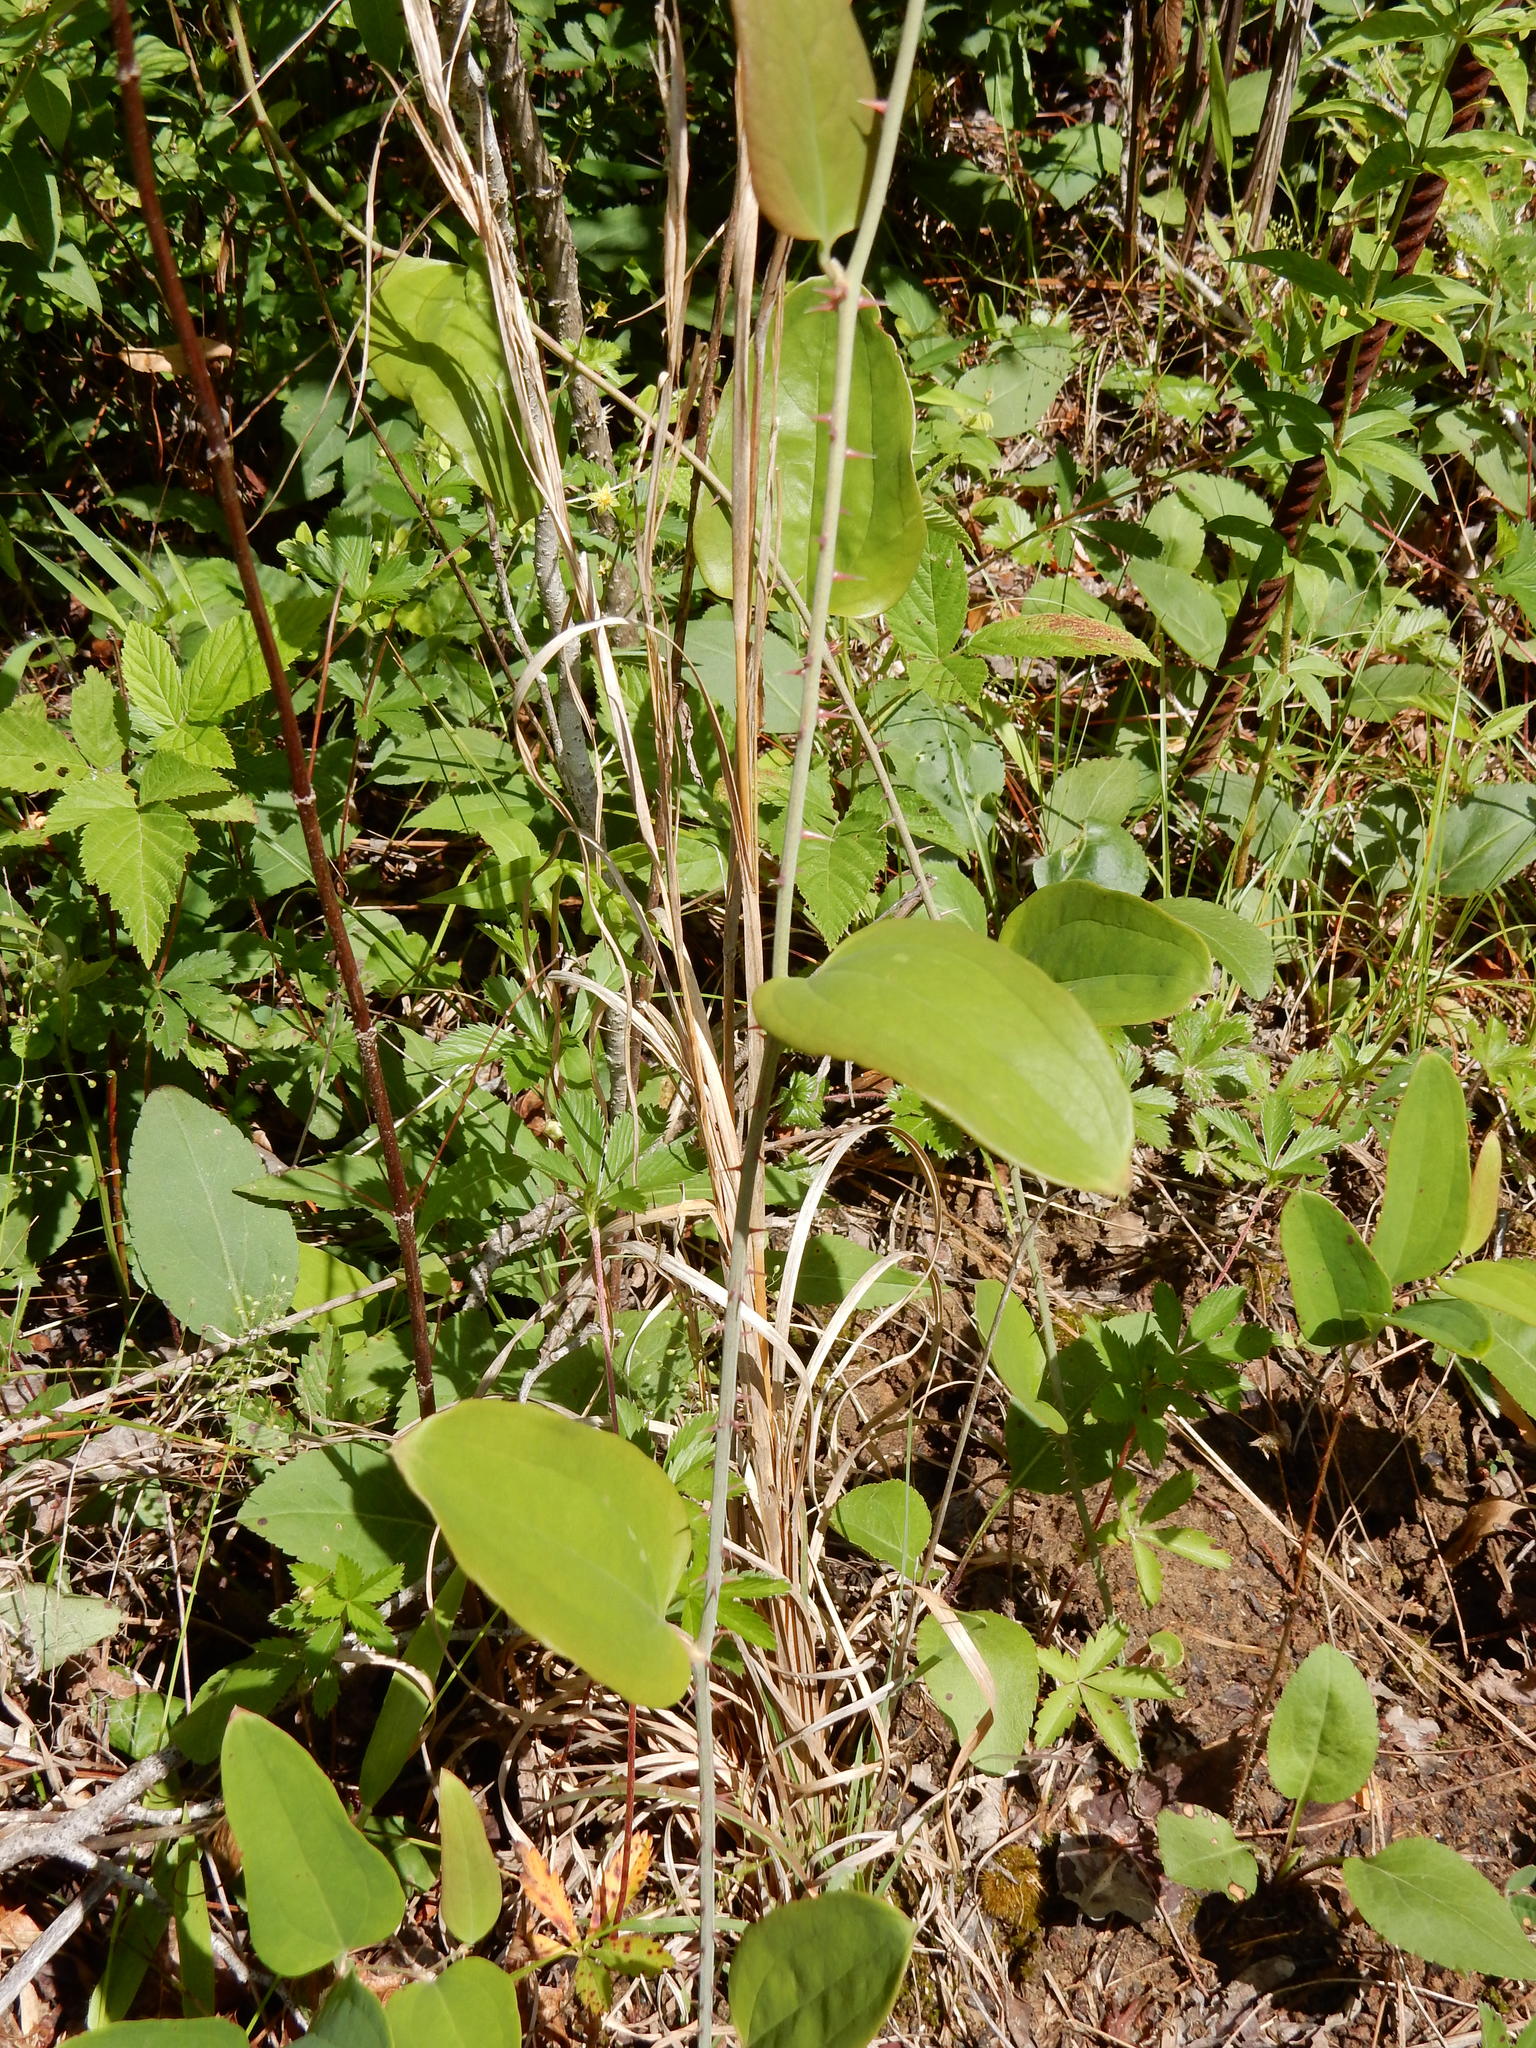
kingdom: Plantae
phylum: Tracheophyta
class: Liliopsida
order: Liliales
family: Smilacaceae
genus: Smilax
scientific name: Smilax glauca
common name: Cat greenbrier
